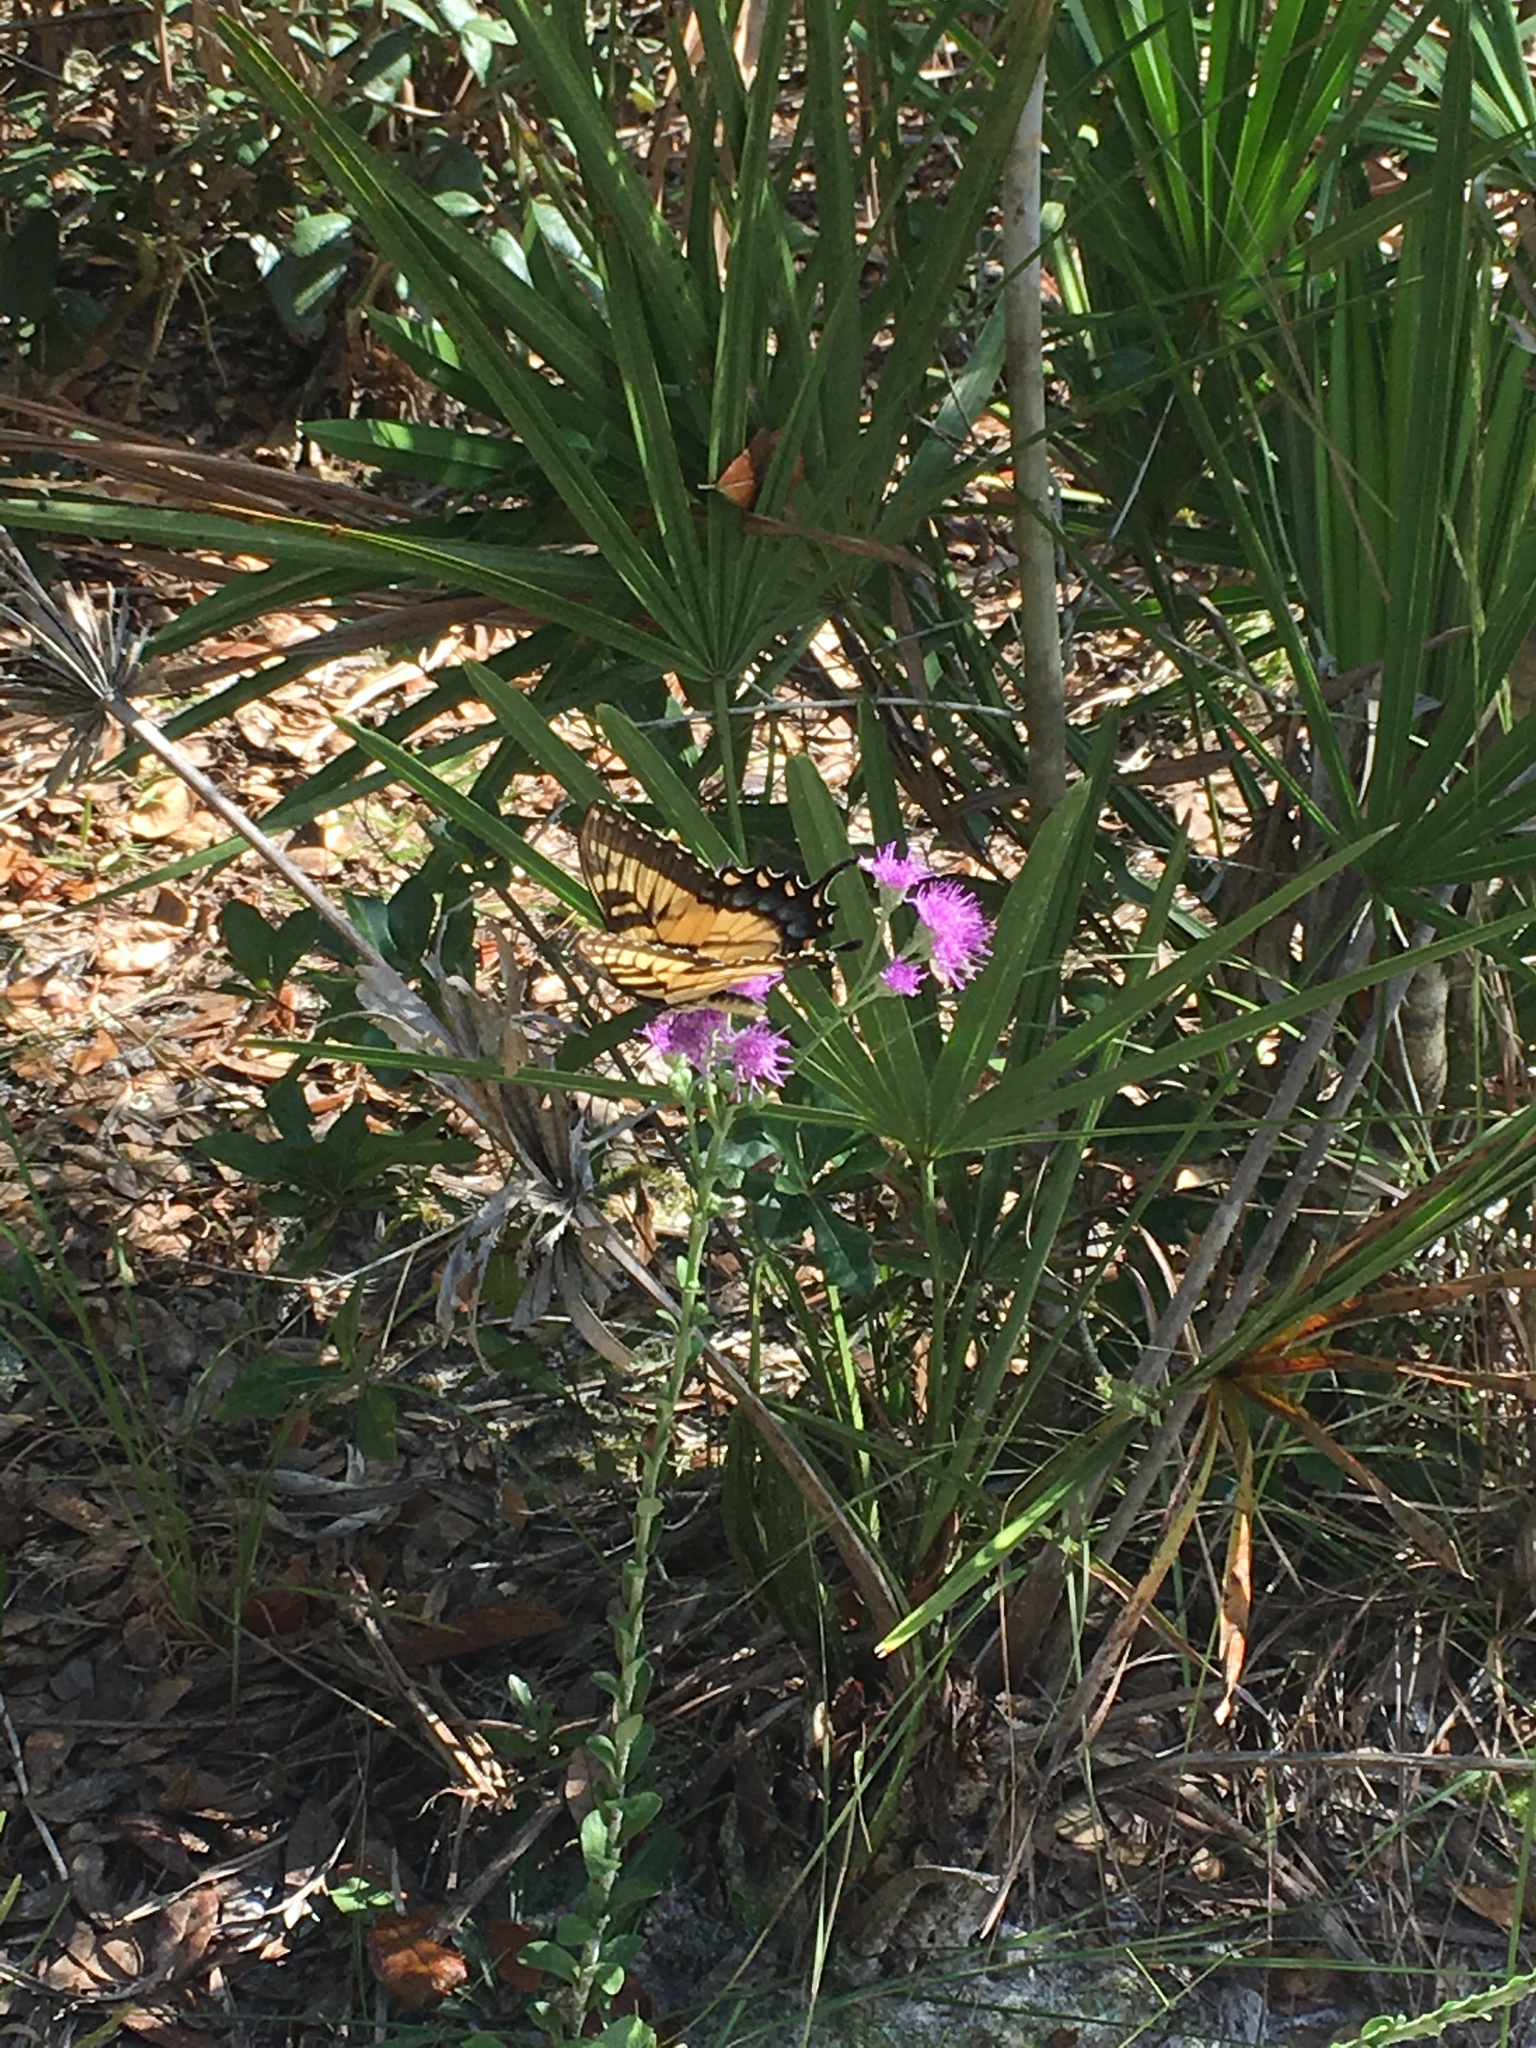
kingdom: Animalia
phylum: Arthropoda
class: Insecta
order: Lepidoptera
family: Papilionidae
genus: Papilio
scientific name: Papilio glaucus
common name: Tiger swallowtail
